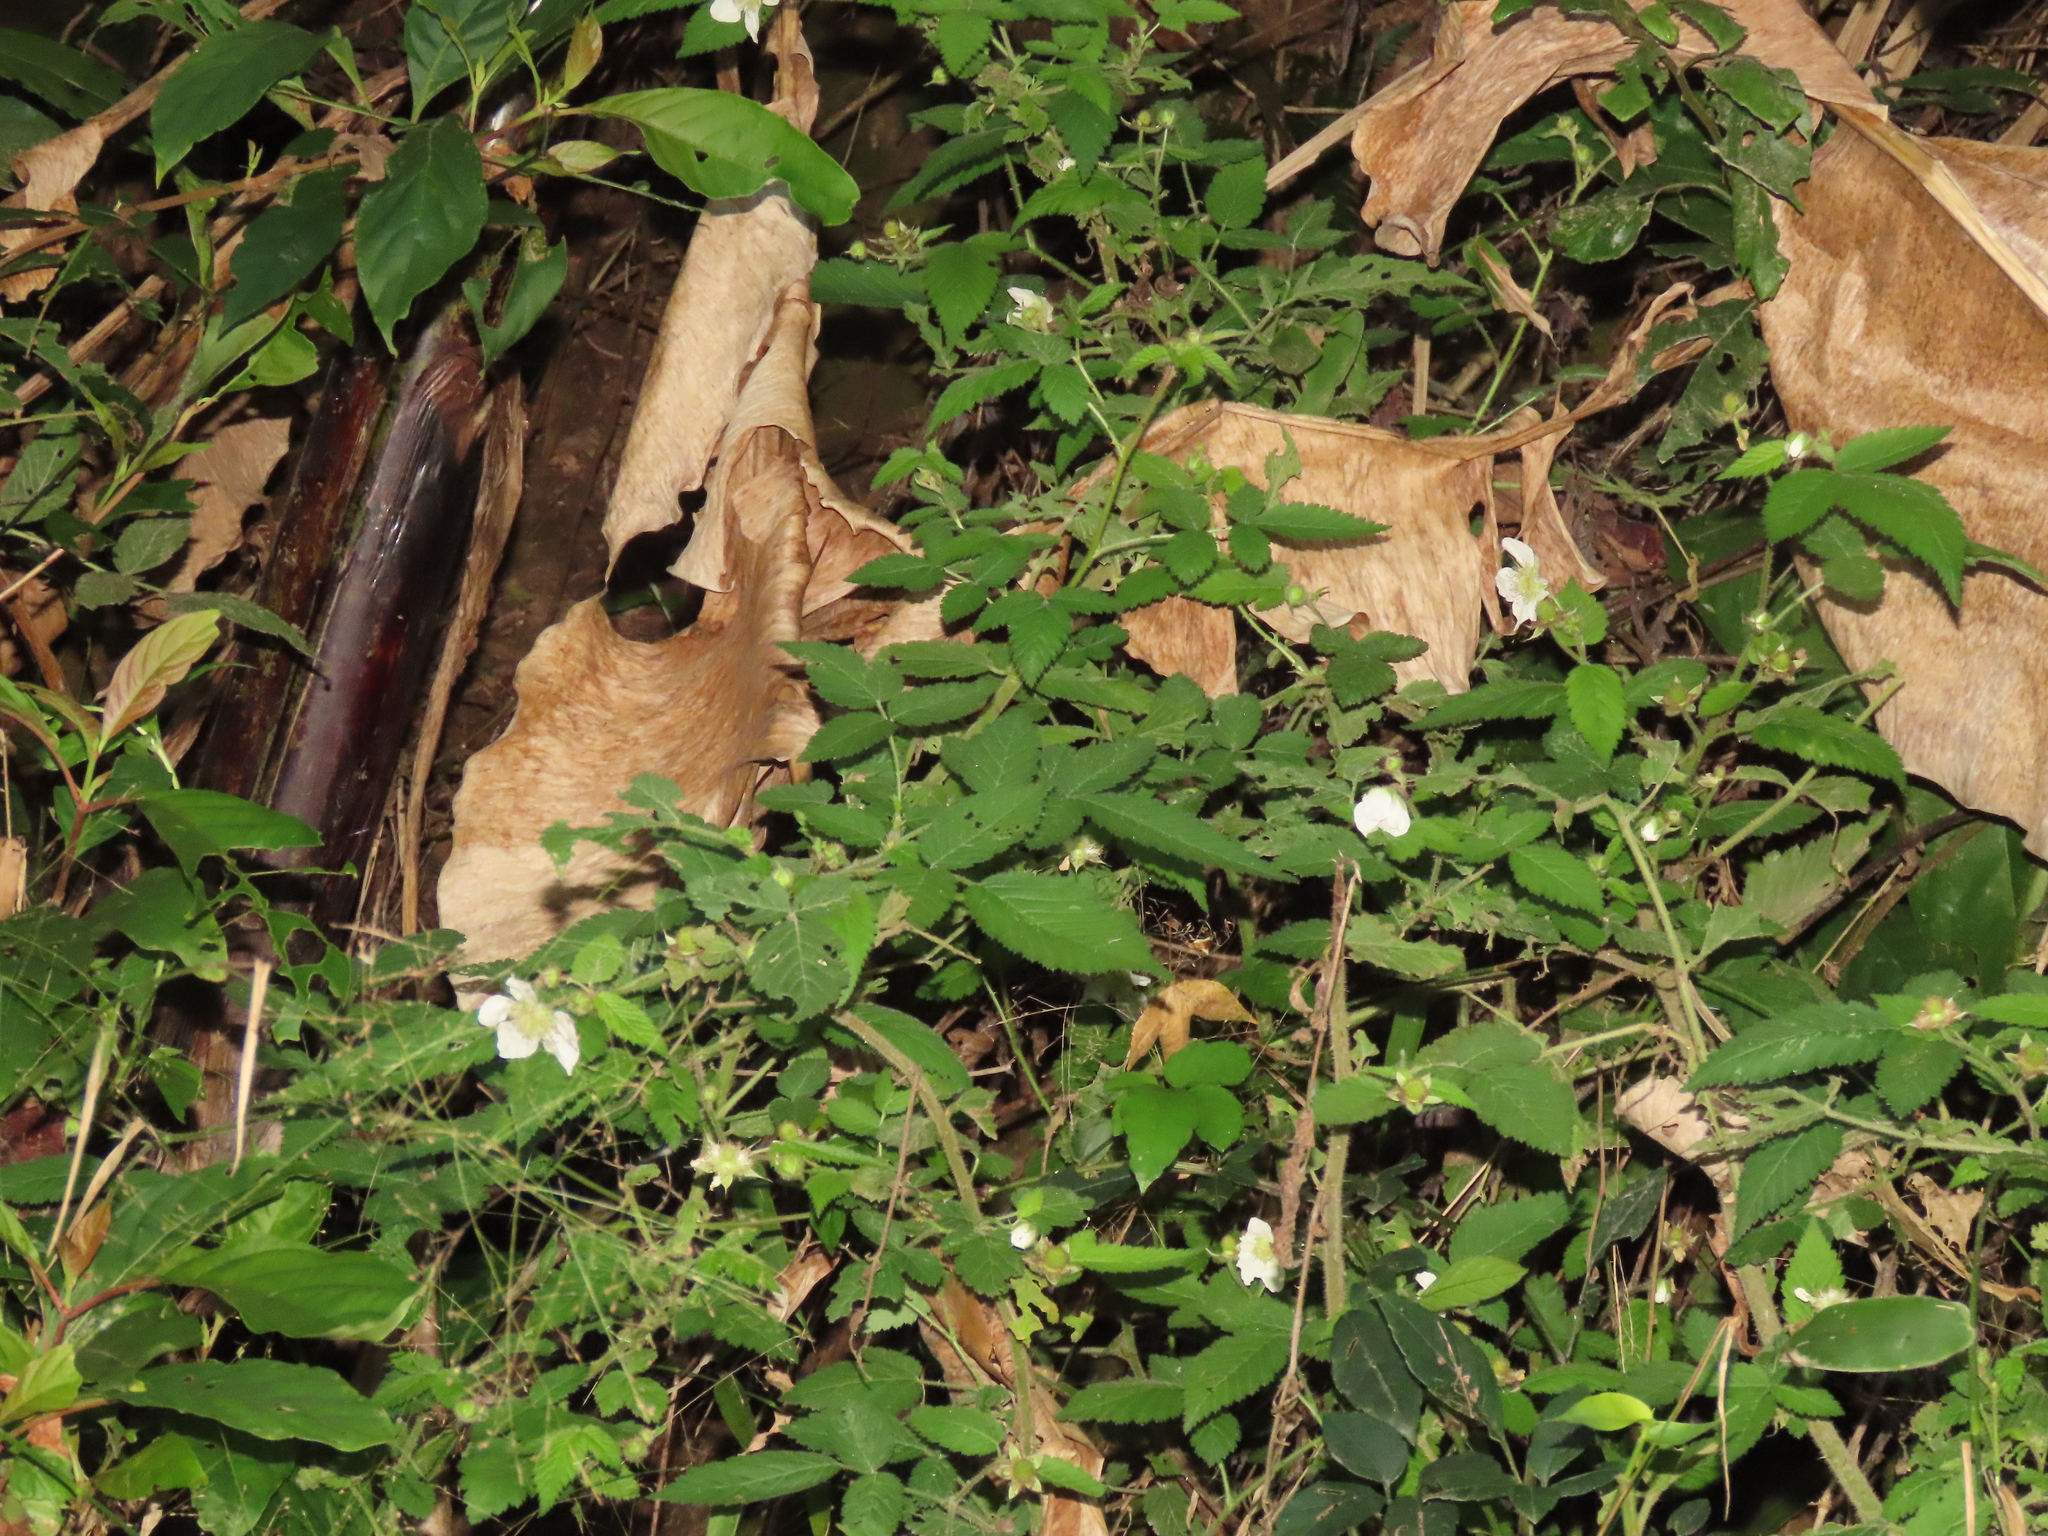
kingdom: Plantae
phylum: Tracheophyta
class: Magnoliopsida
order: Rosales
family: Rosaceae
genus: Rubus
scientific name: Rubus croceacanthus
